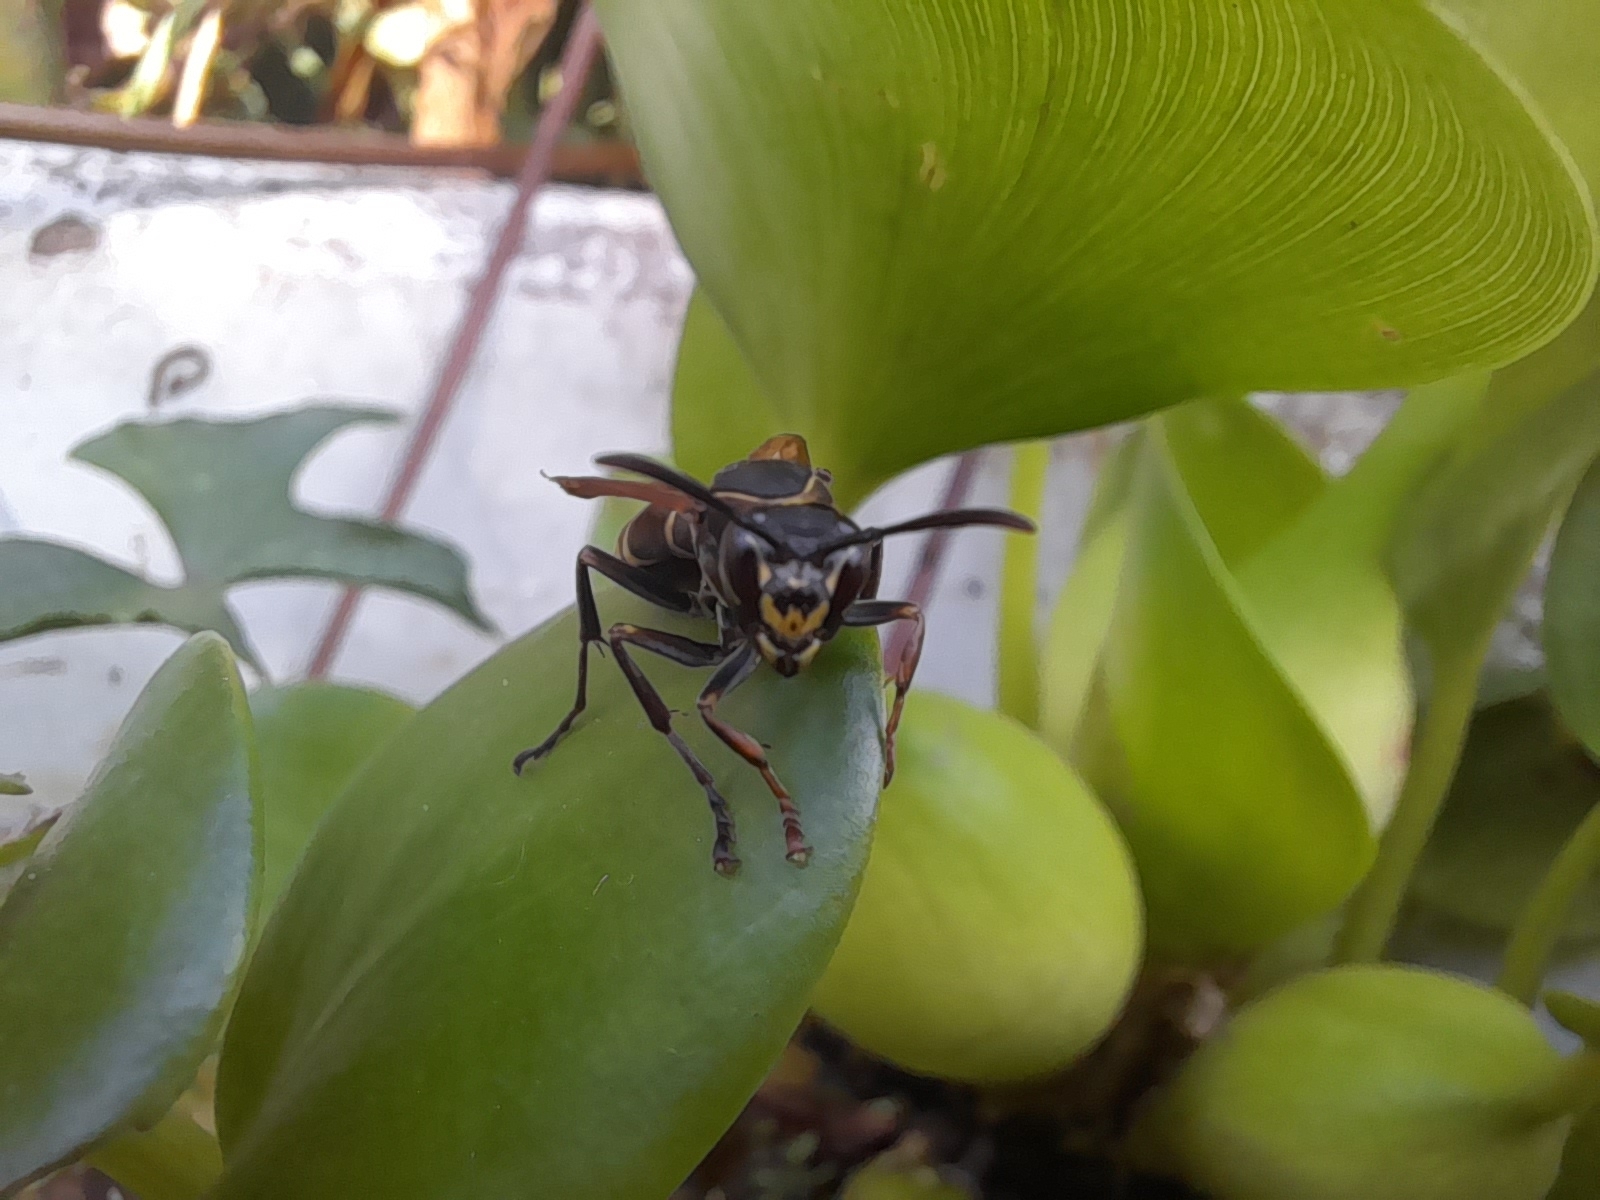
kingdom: Animalia
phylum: Arthropoda
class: Insecta
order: Hymenoptera
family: Eumenidae
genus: Polistes
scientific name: Polistes cinerascens
